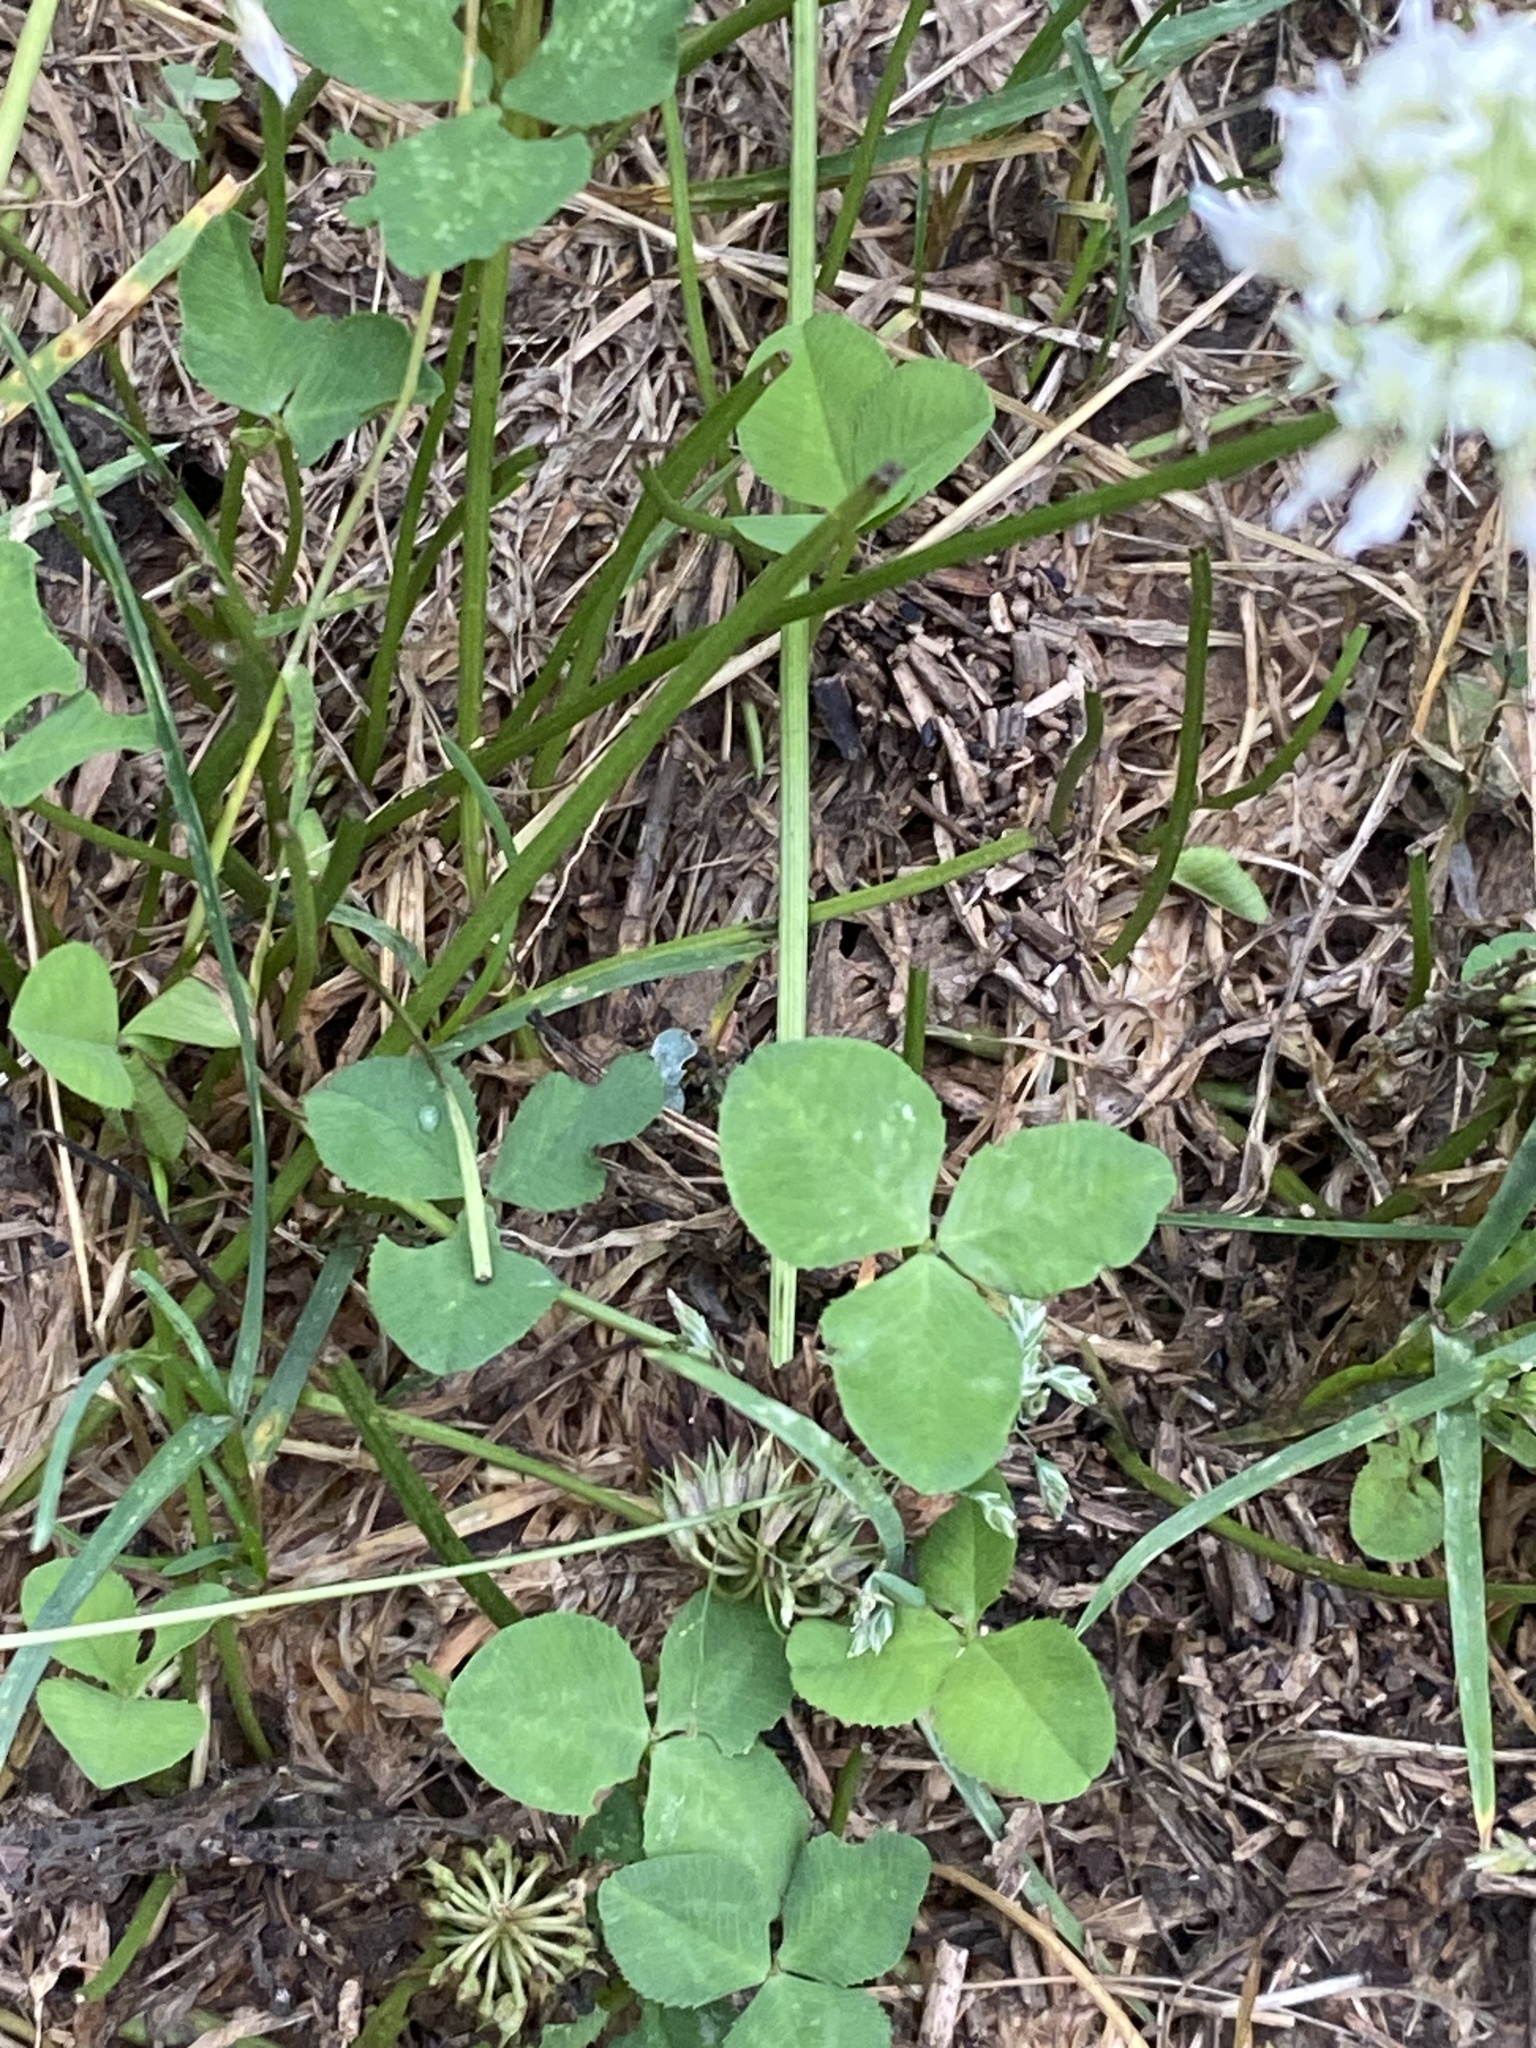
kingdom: Plantae
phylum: Tracheophyta
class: Magnoliopsida
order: Fabales
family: Fabaceae
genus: Trifolium
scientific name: Trifolium repens
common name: White clover
